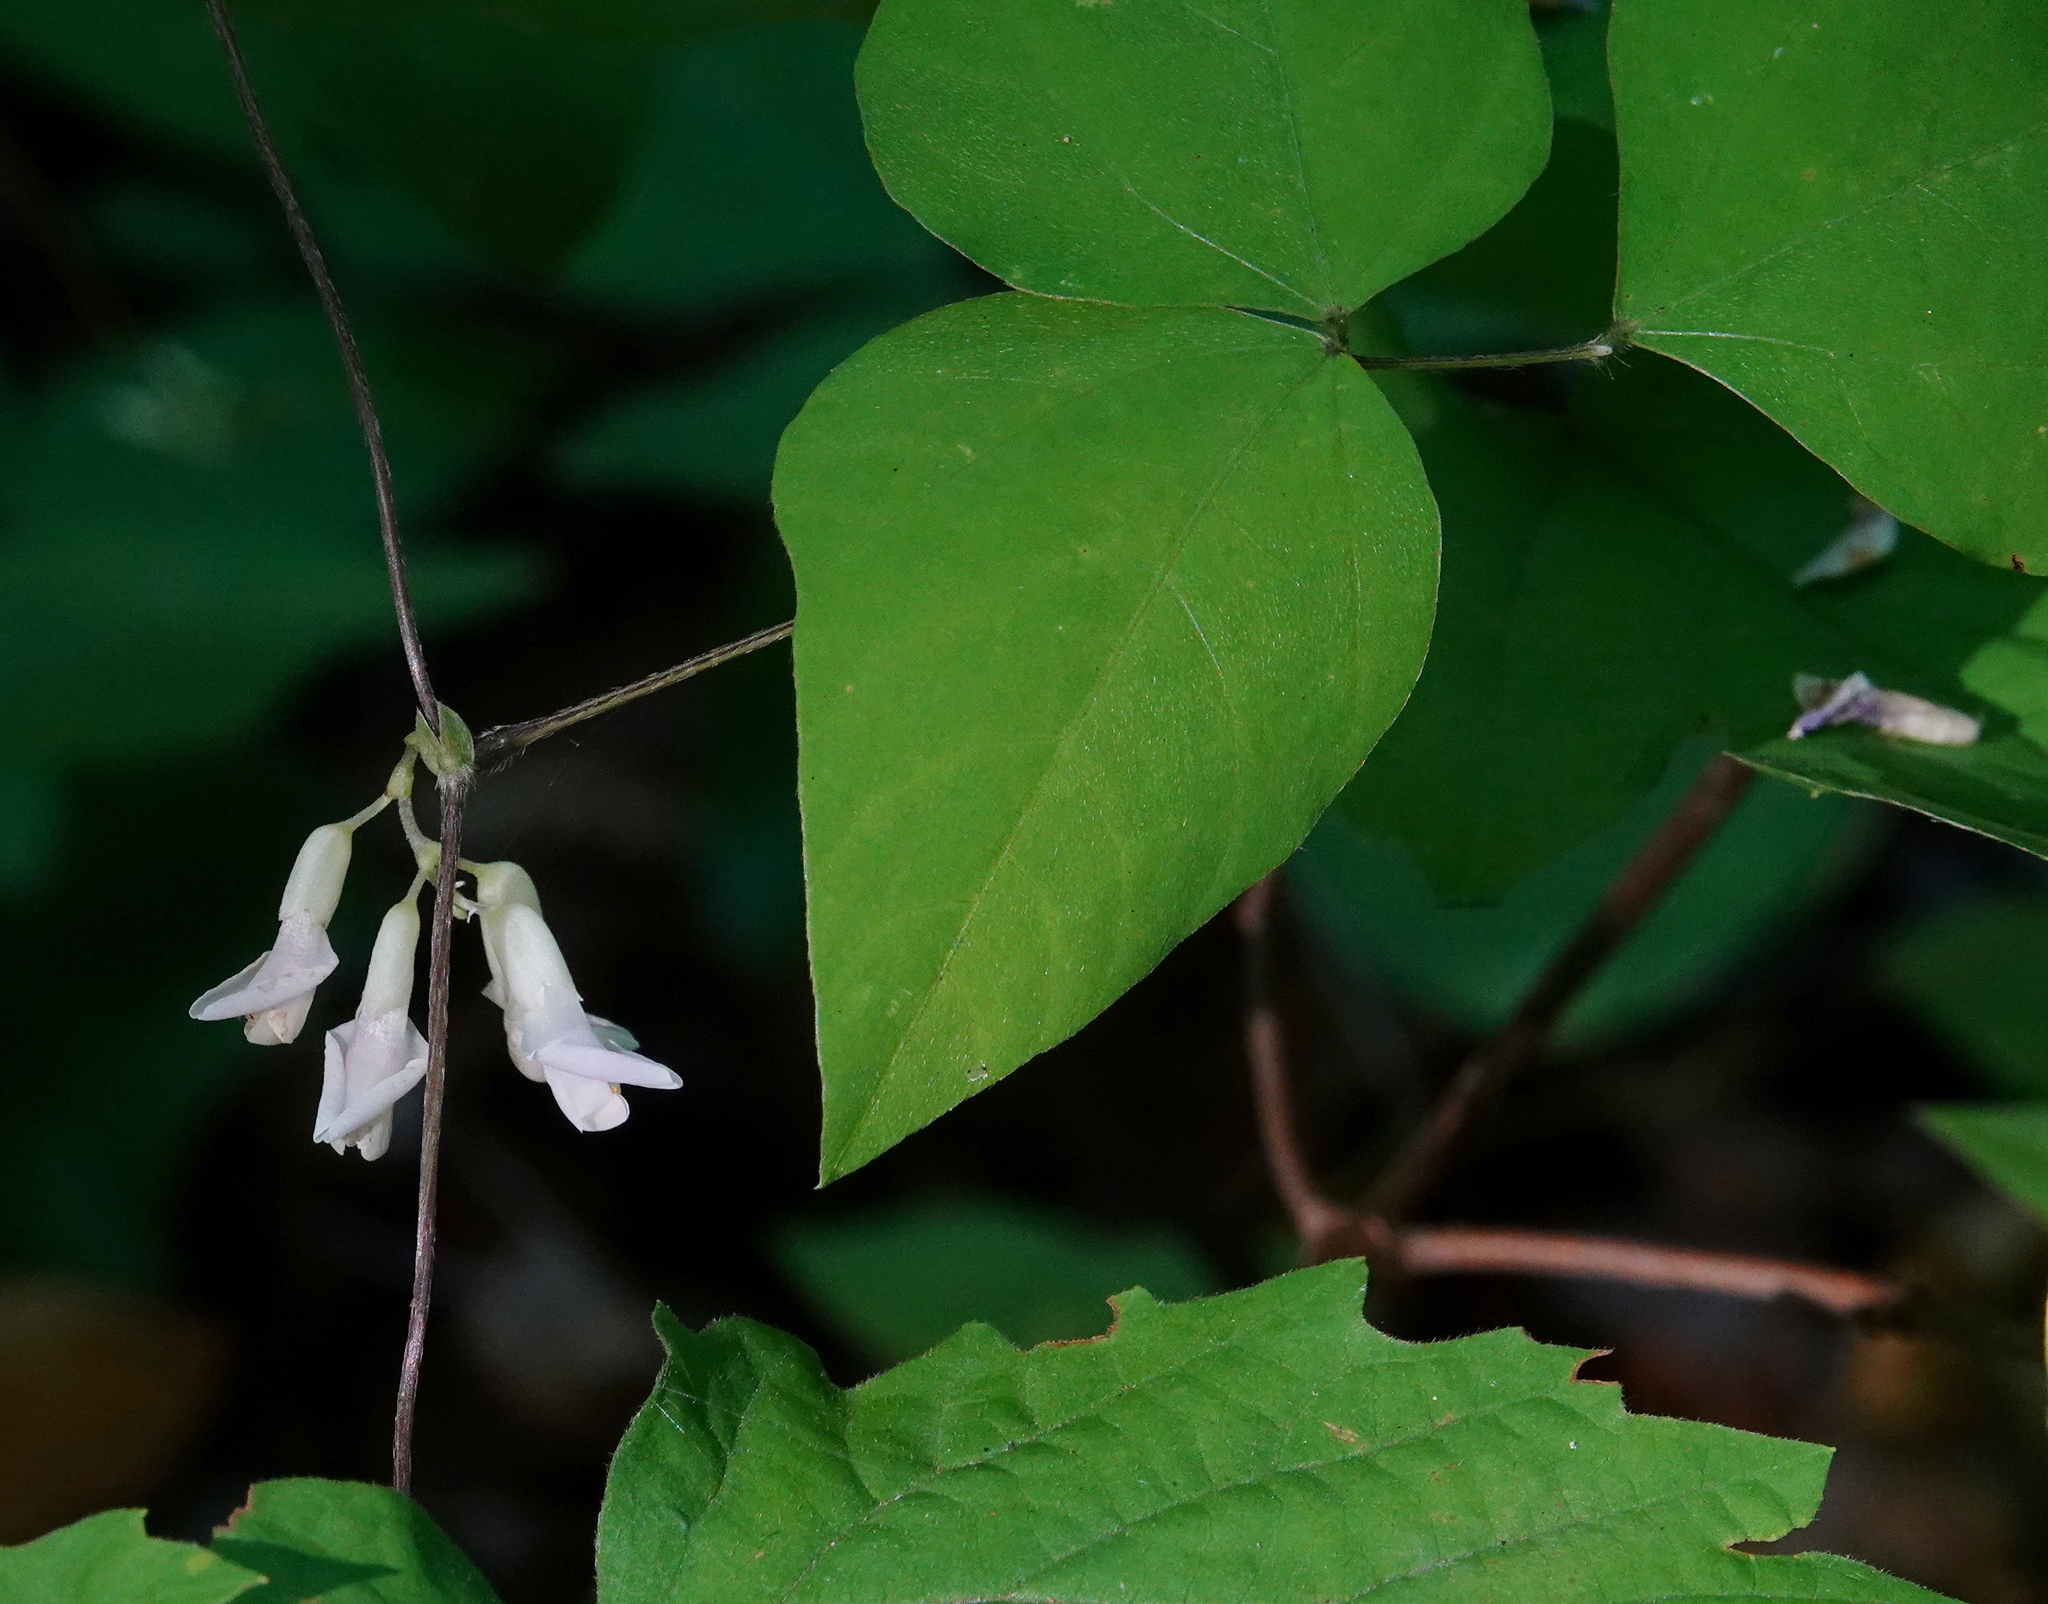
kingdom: Plantae
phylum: Tracheophyta
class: Magnoliopsida
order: Fabales
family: Fabaceae
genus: Amphicarpaea
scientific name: Amphicarpaea bracteata
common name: American hog peanut
